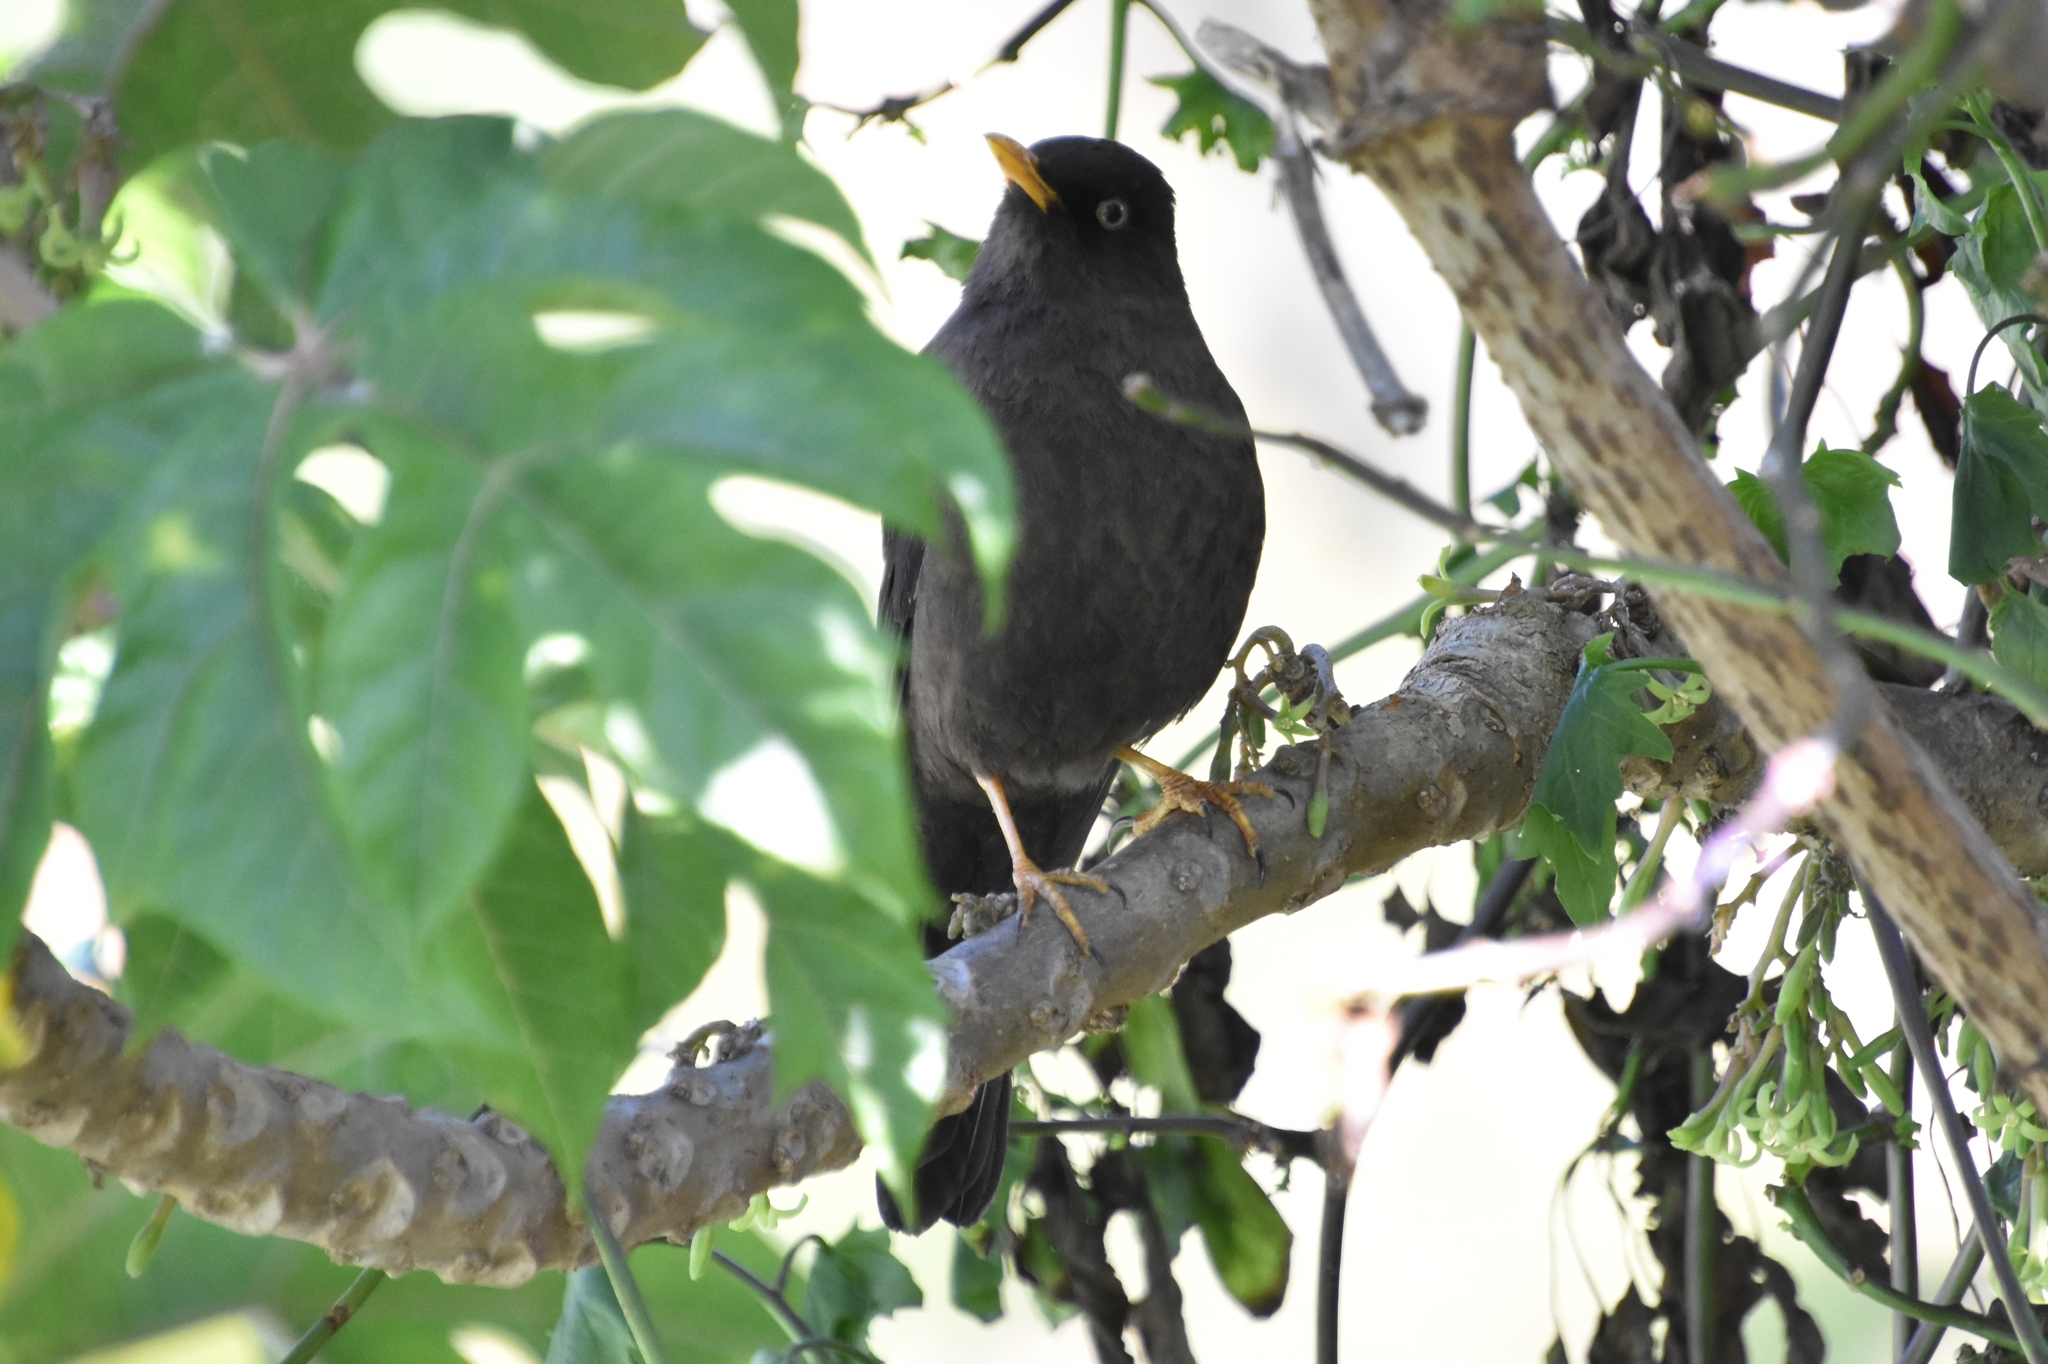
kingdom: Animalia
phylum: Chordata
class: Aves
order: Passeriformes
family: Turdidae
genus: Turdus
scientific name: Turdus nigrescens
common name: Sooty thrush
